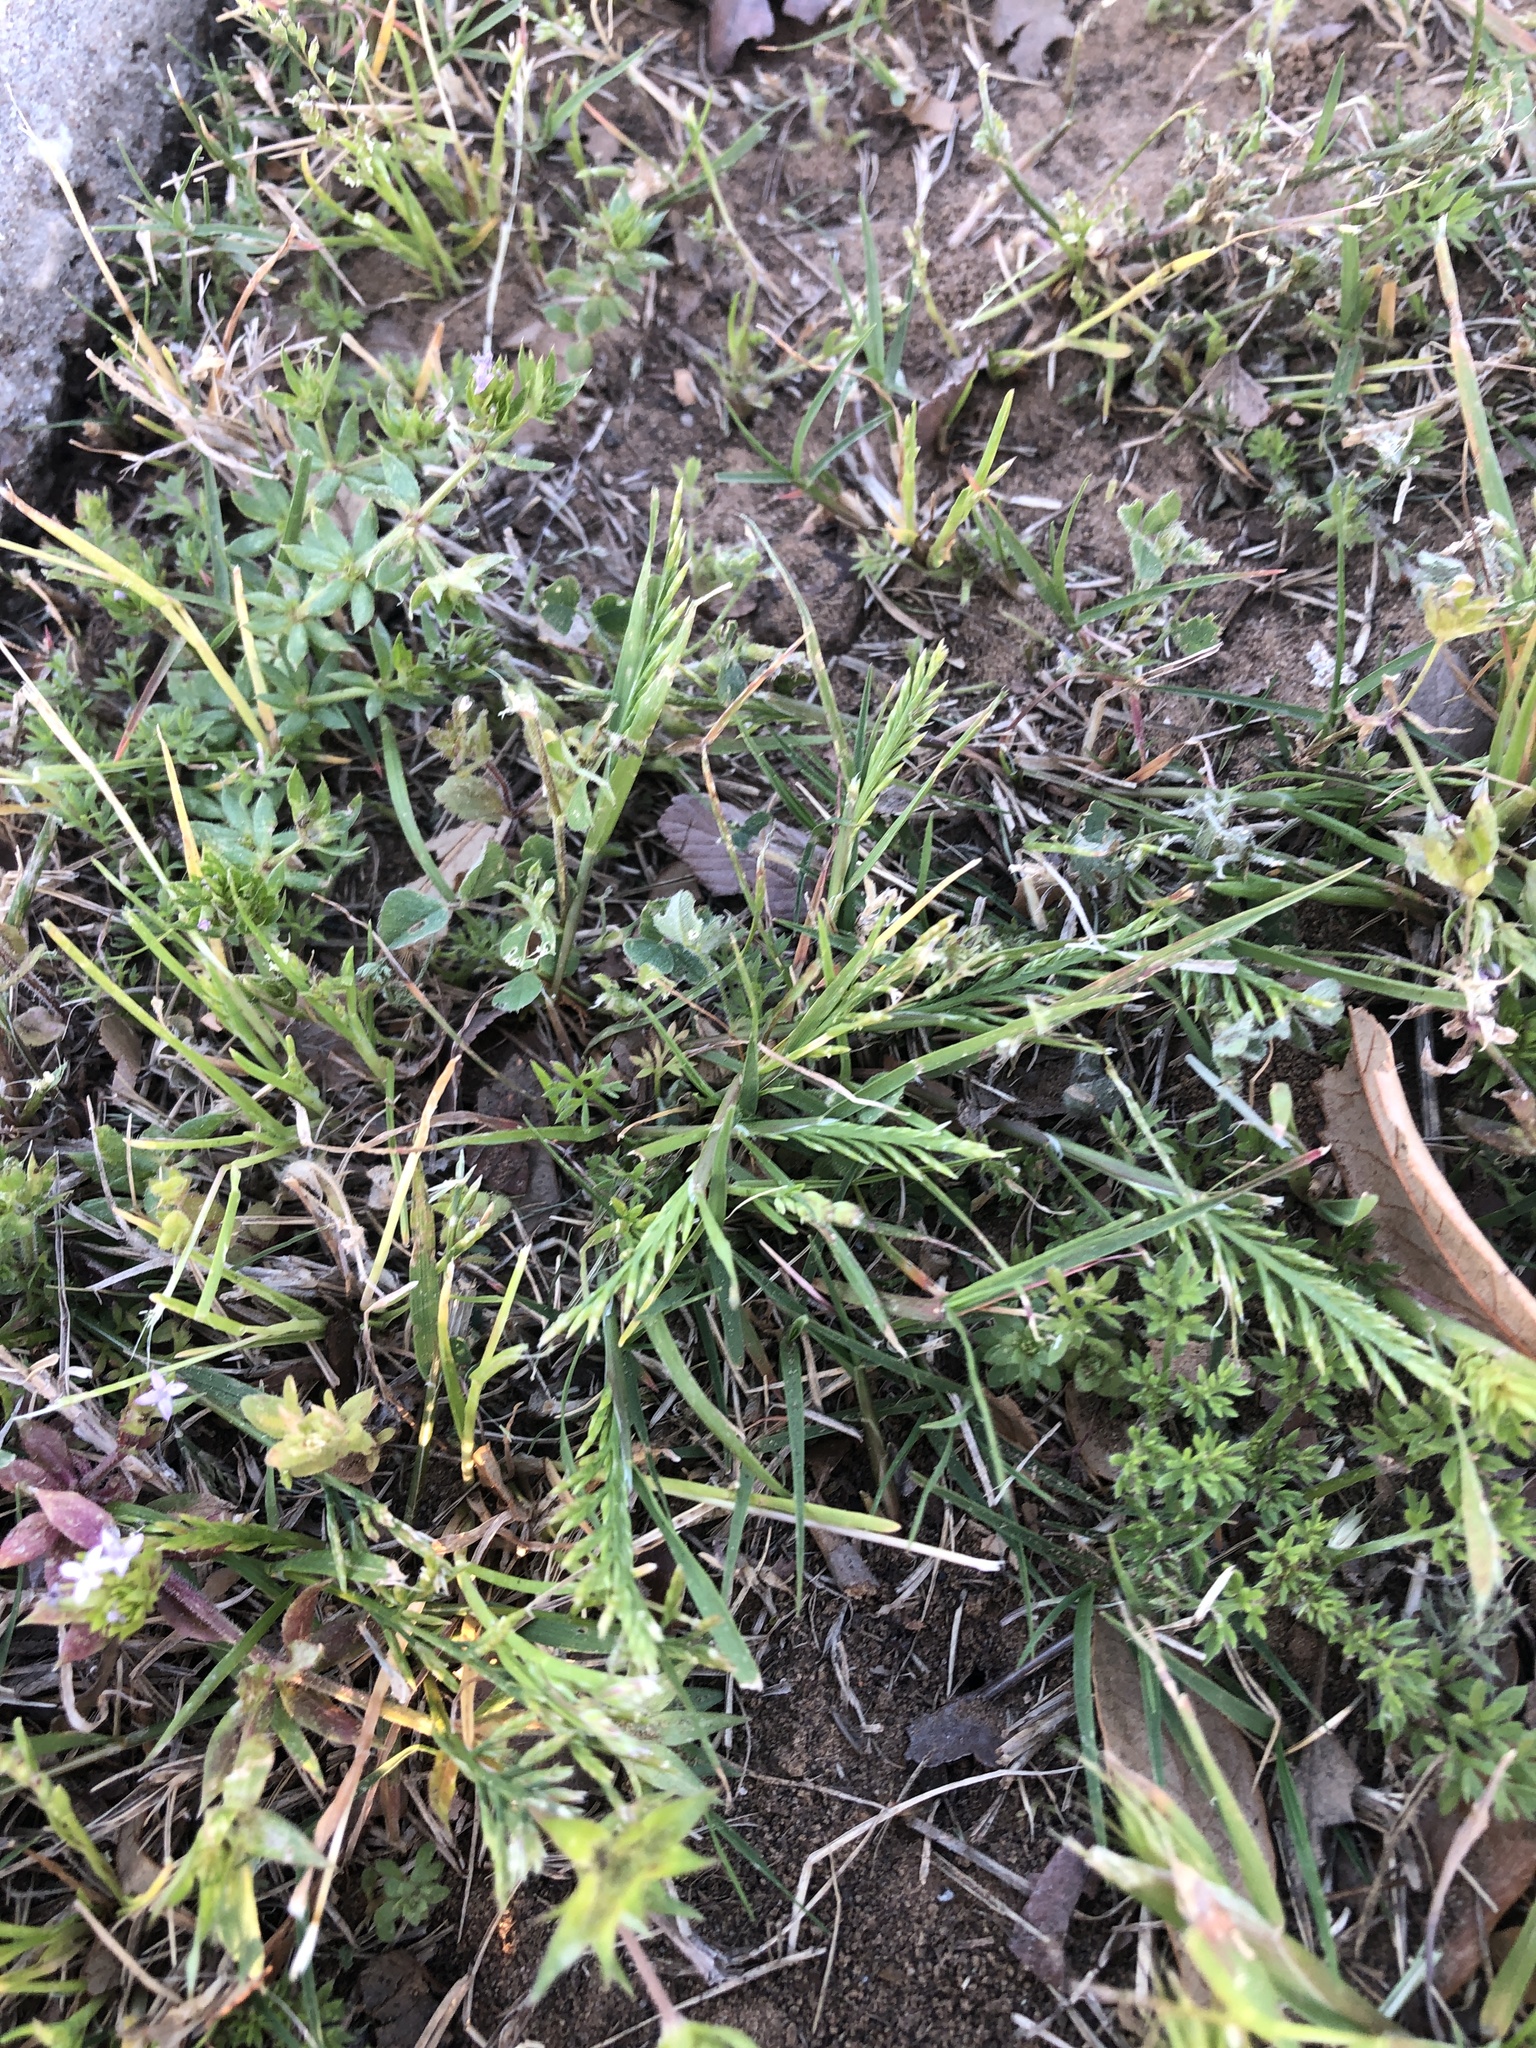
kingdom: Plantae
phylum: Tracheophyta
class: Liliopsida
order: Poales
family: Poaceae
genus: Catapodium
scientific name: Catapodium rigidum
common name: Fern-grass
